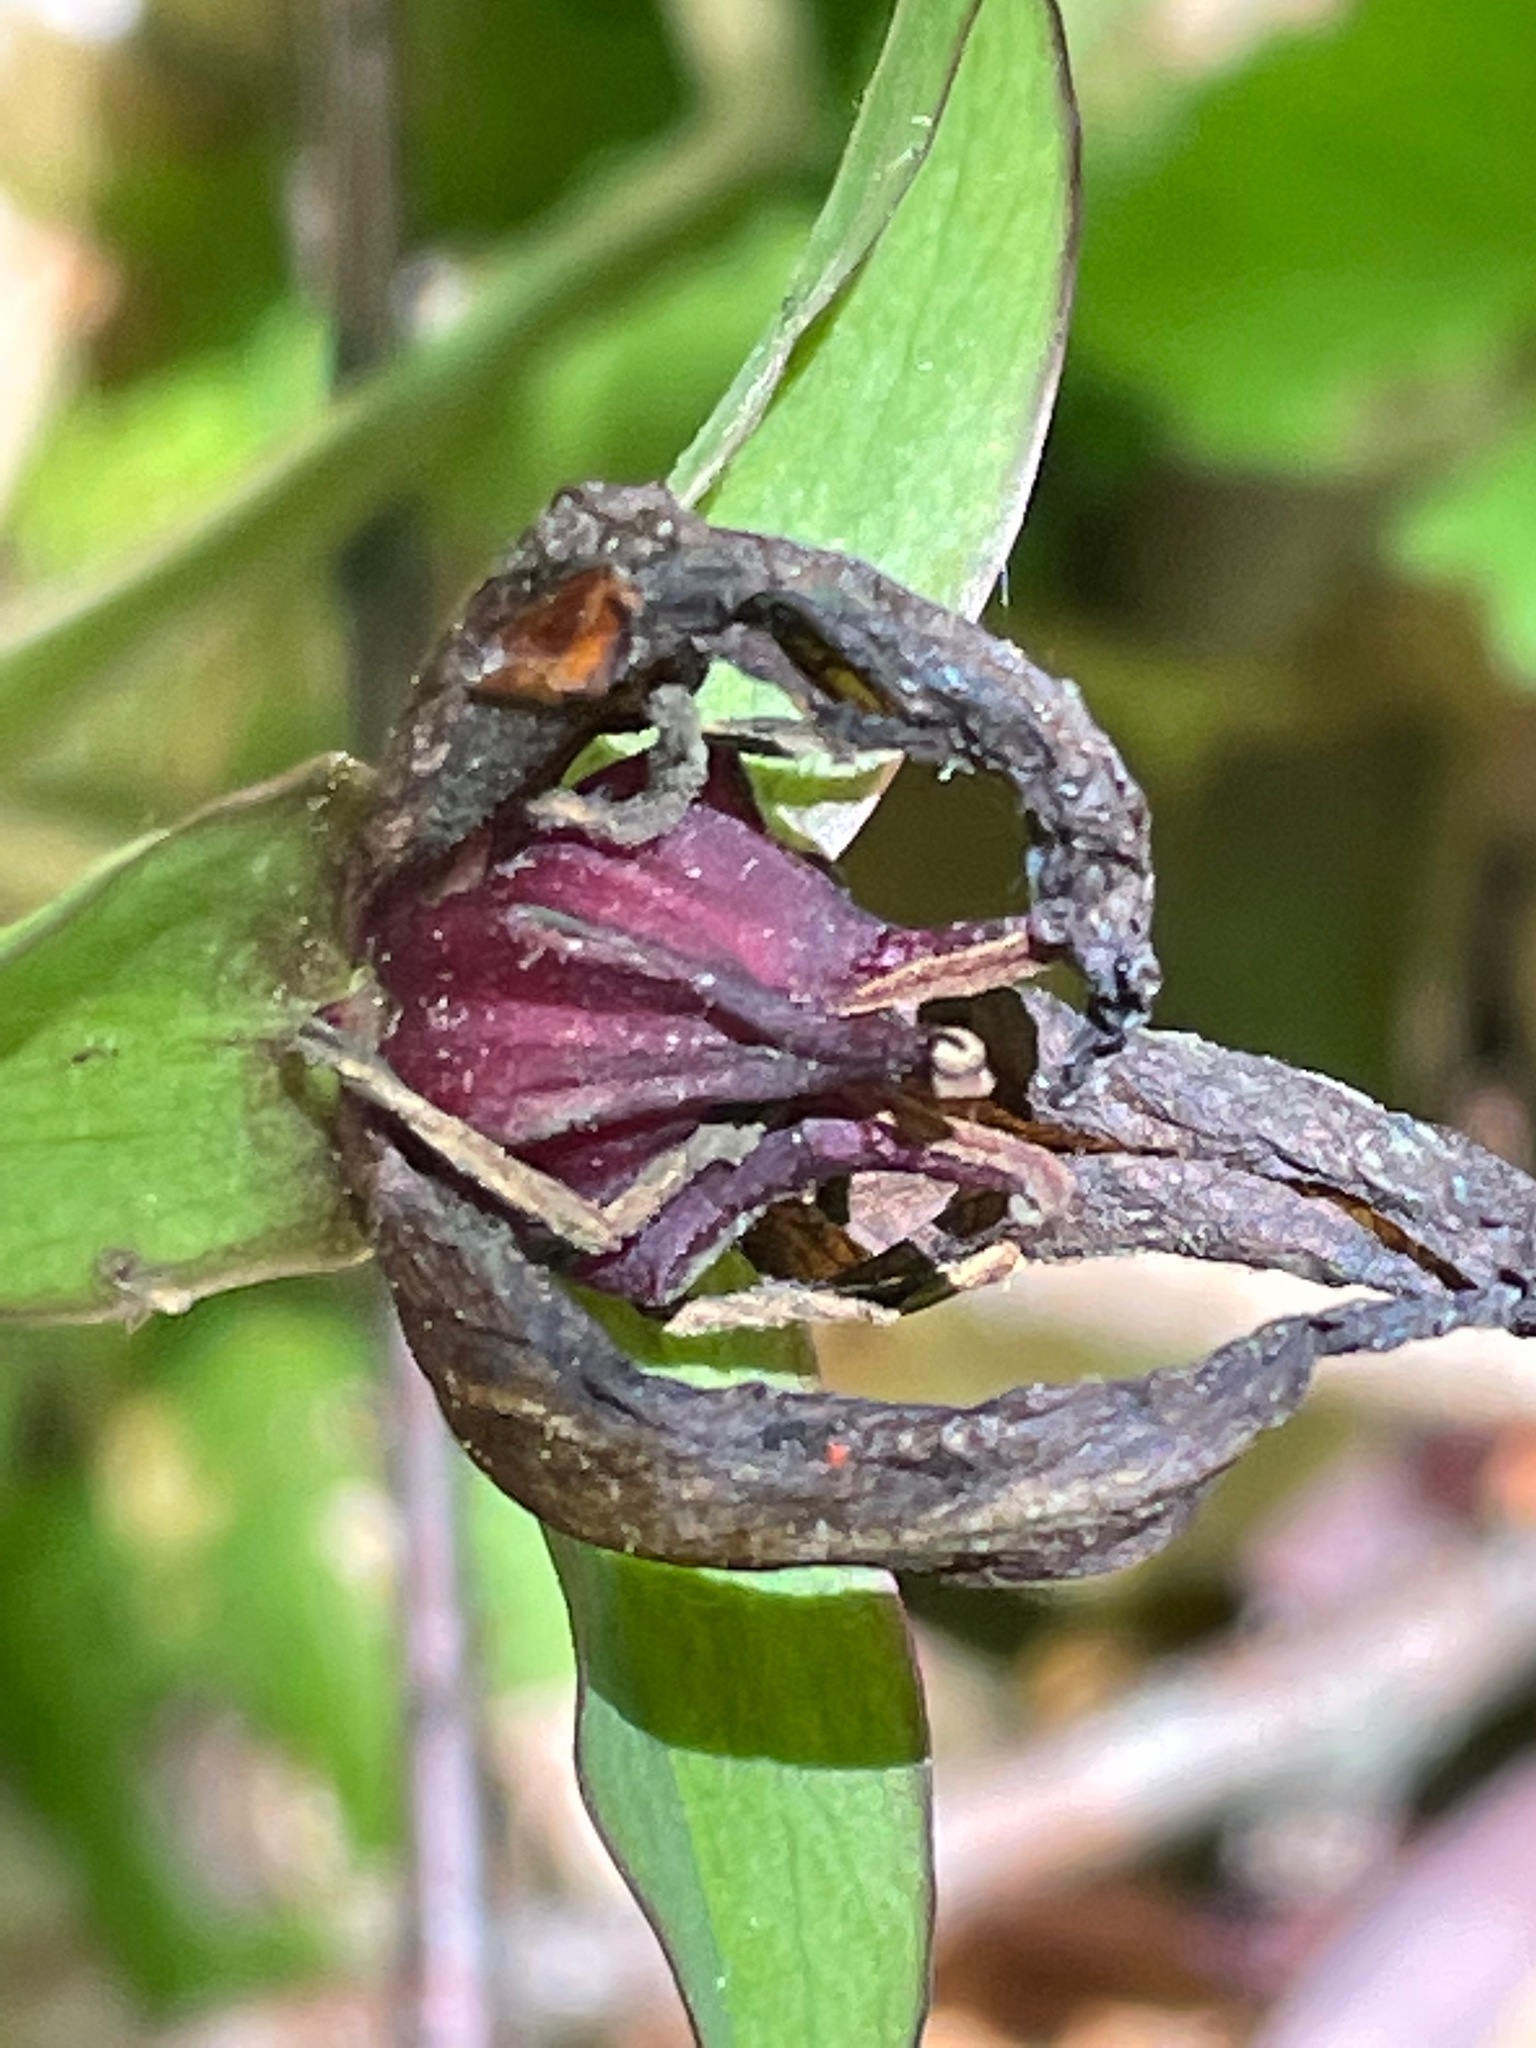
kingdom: Plantae
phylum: Tracheophyta
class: Liliopsida
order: Liliales
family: Melanthiaceae
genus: Trillium
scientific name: Trillium erectum
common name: Purple trillium
